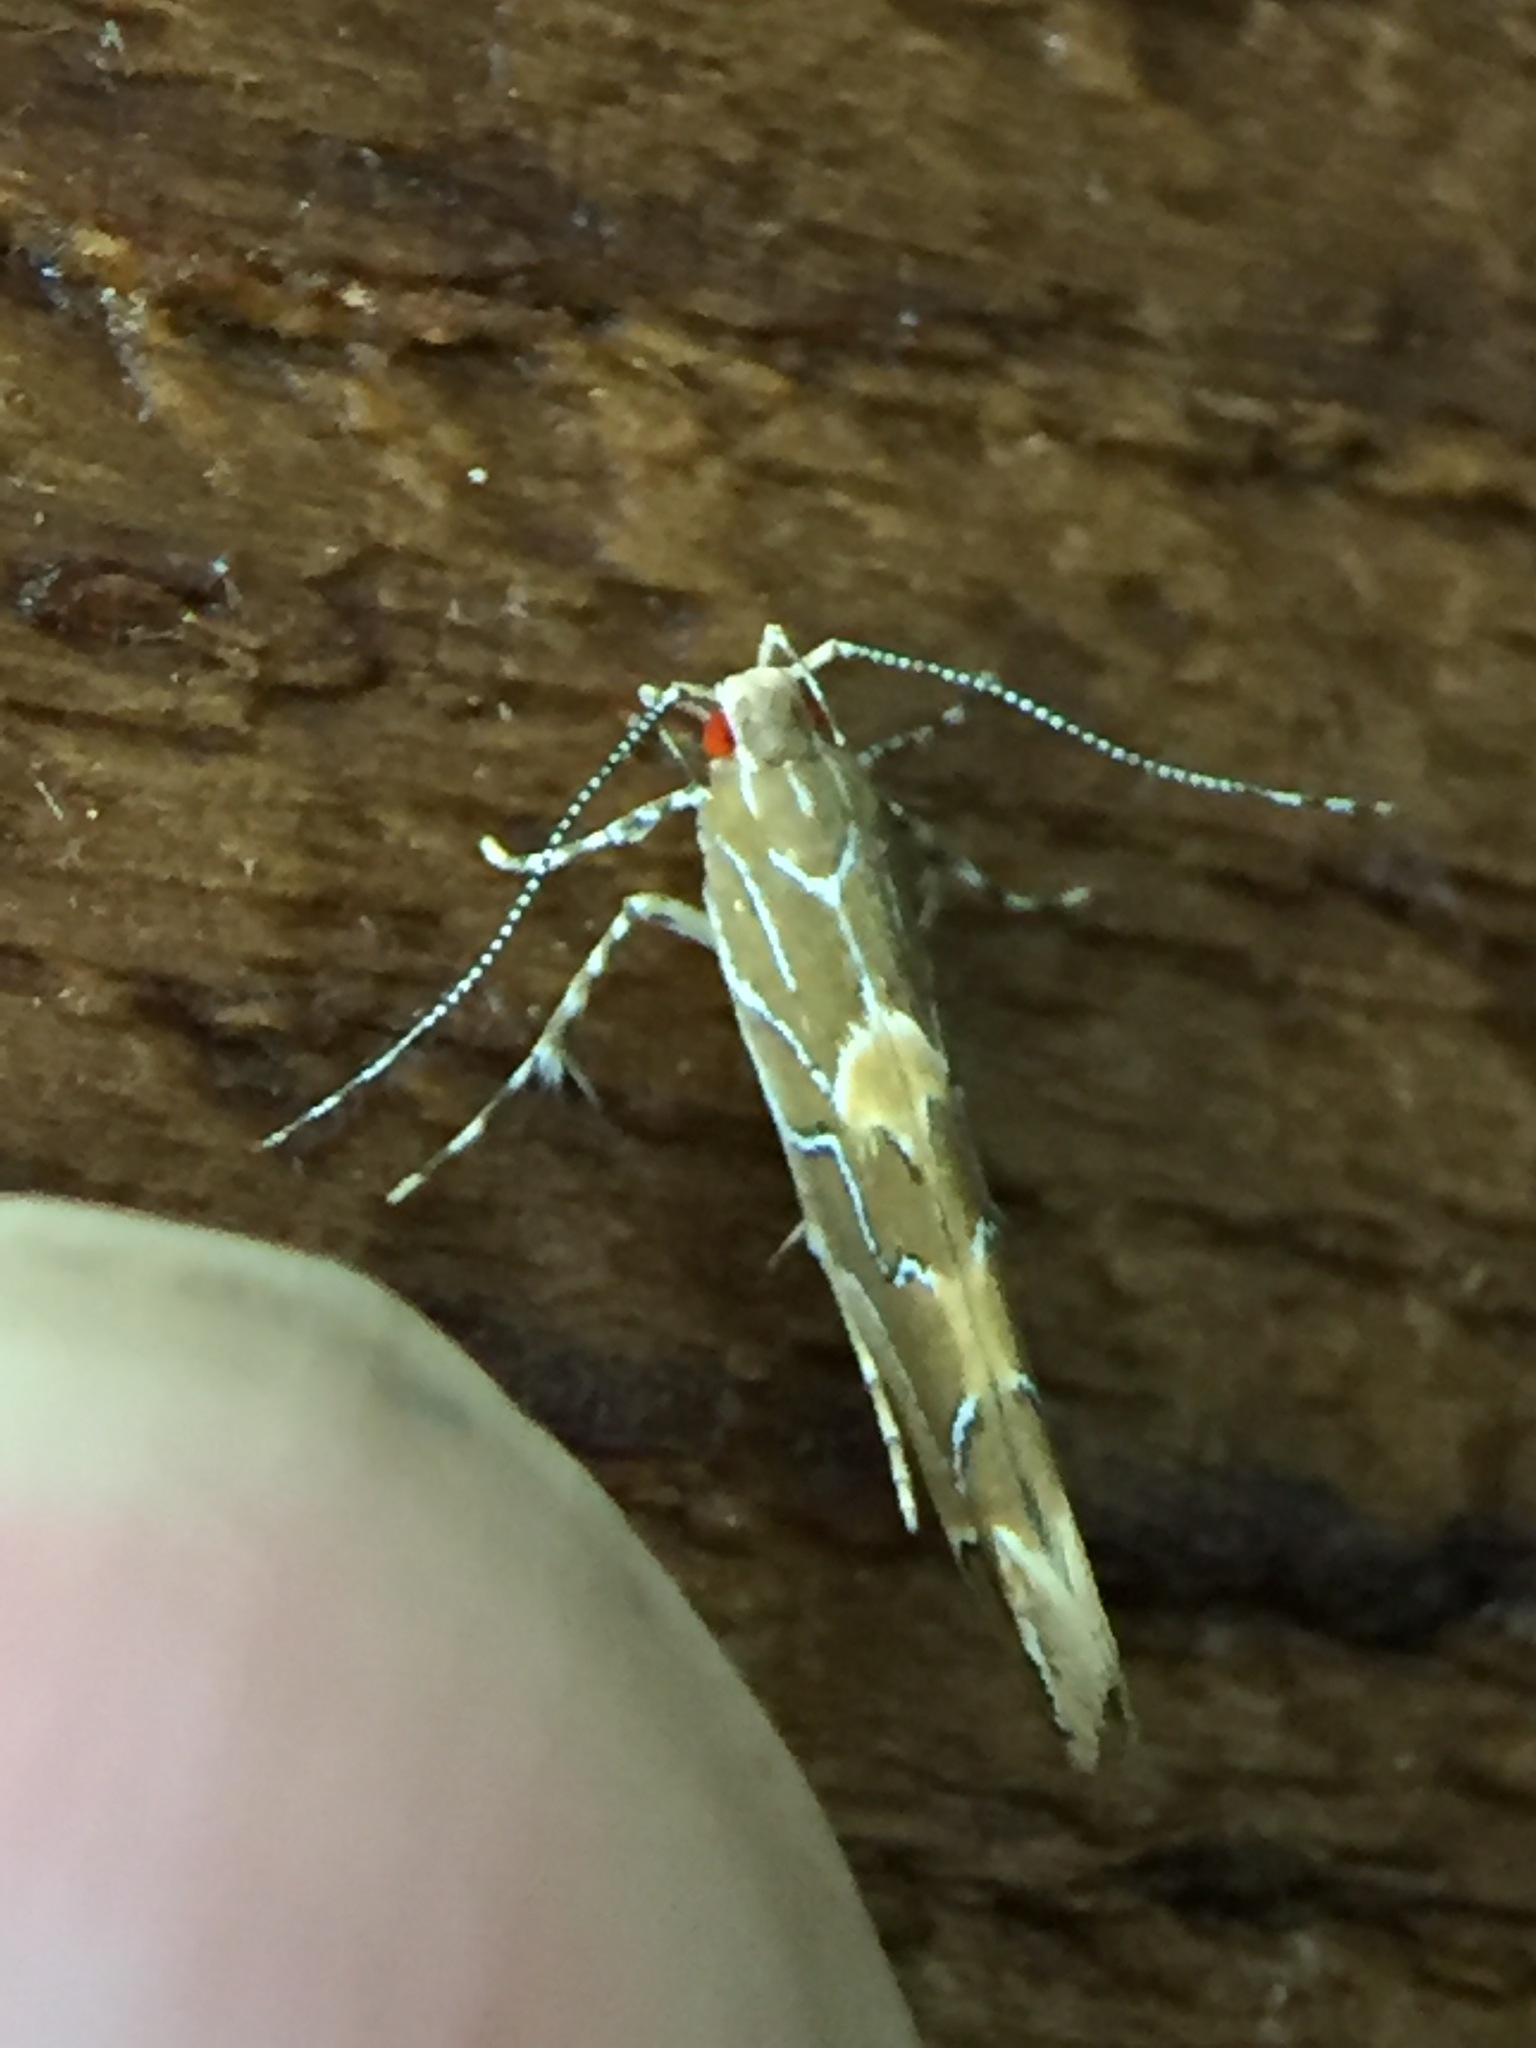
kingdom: Animalia
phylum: Arthropoda
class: Insecta
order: Lepidoptera
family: Cosmopterigidae
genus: Pyroderces
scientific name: Pyroderces apparitella
